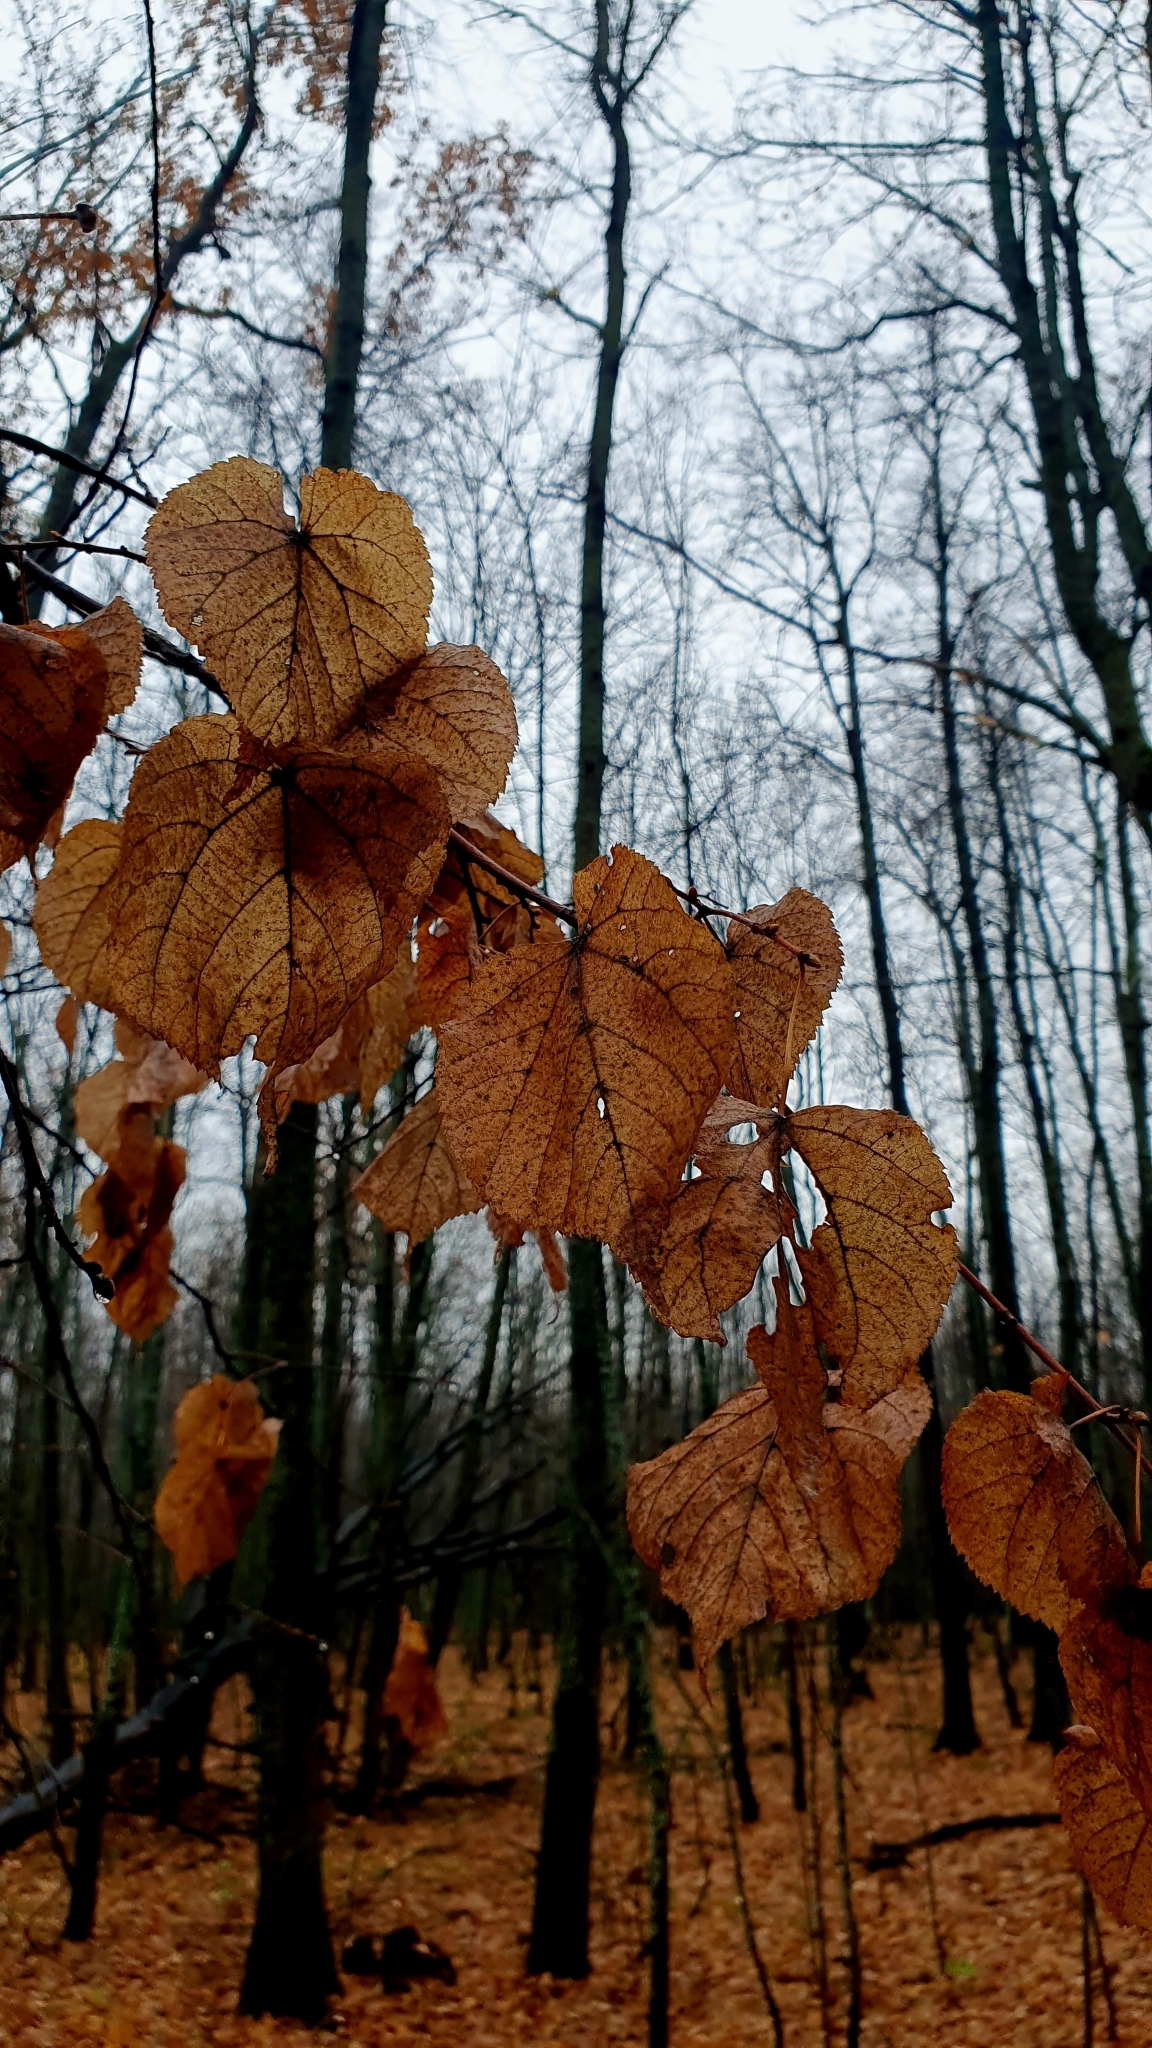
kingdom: Plantae
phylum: Tracheophyta
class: Magnoliopsida
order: Malvales
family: Malvaceae
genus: Tilia
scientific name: Tilia cordata
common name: Small-leaved lime
